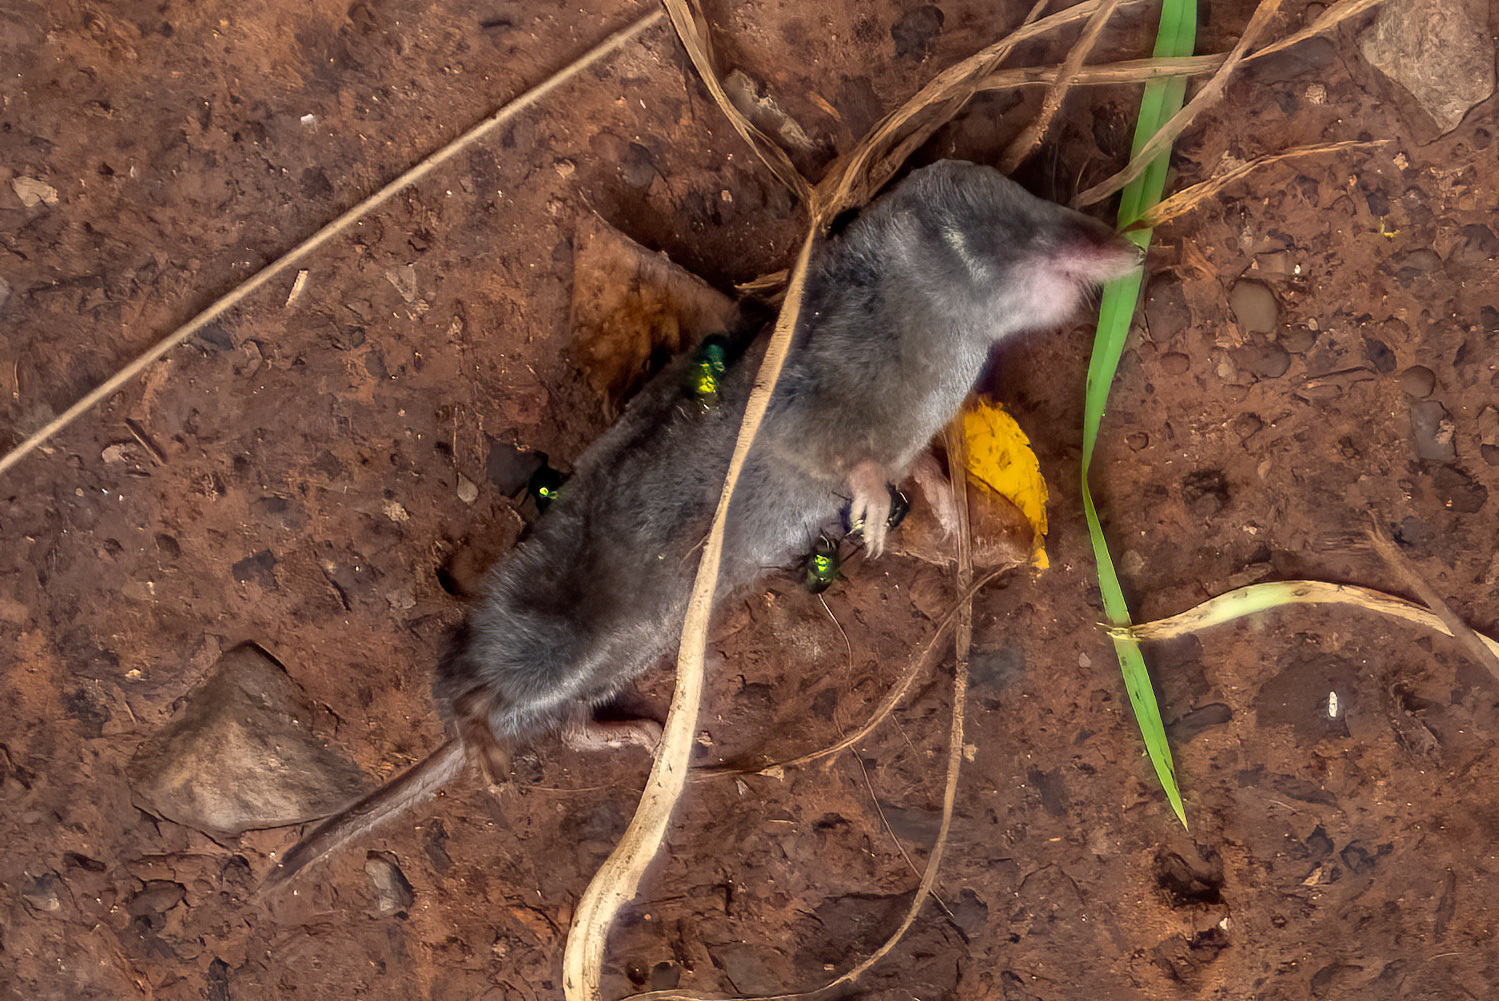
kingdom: Animalia
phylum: Chordata
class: Mammalia
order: Soricomorpha
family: Soricidae
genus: Blarina
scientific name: Blarina brevicauda
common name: Northern short-tailed shrew
